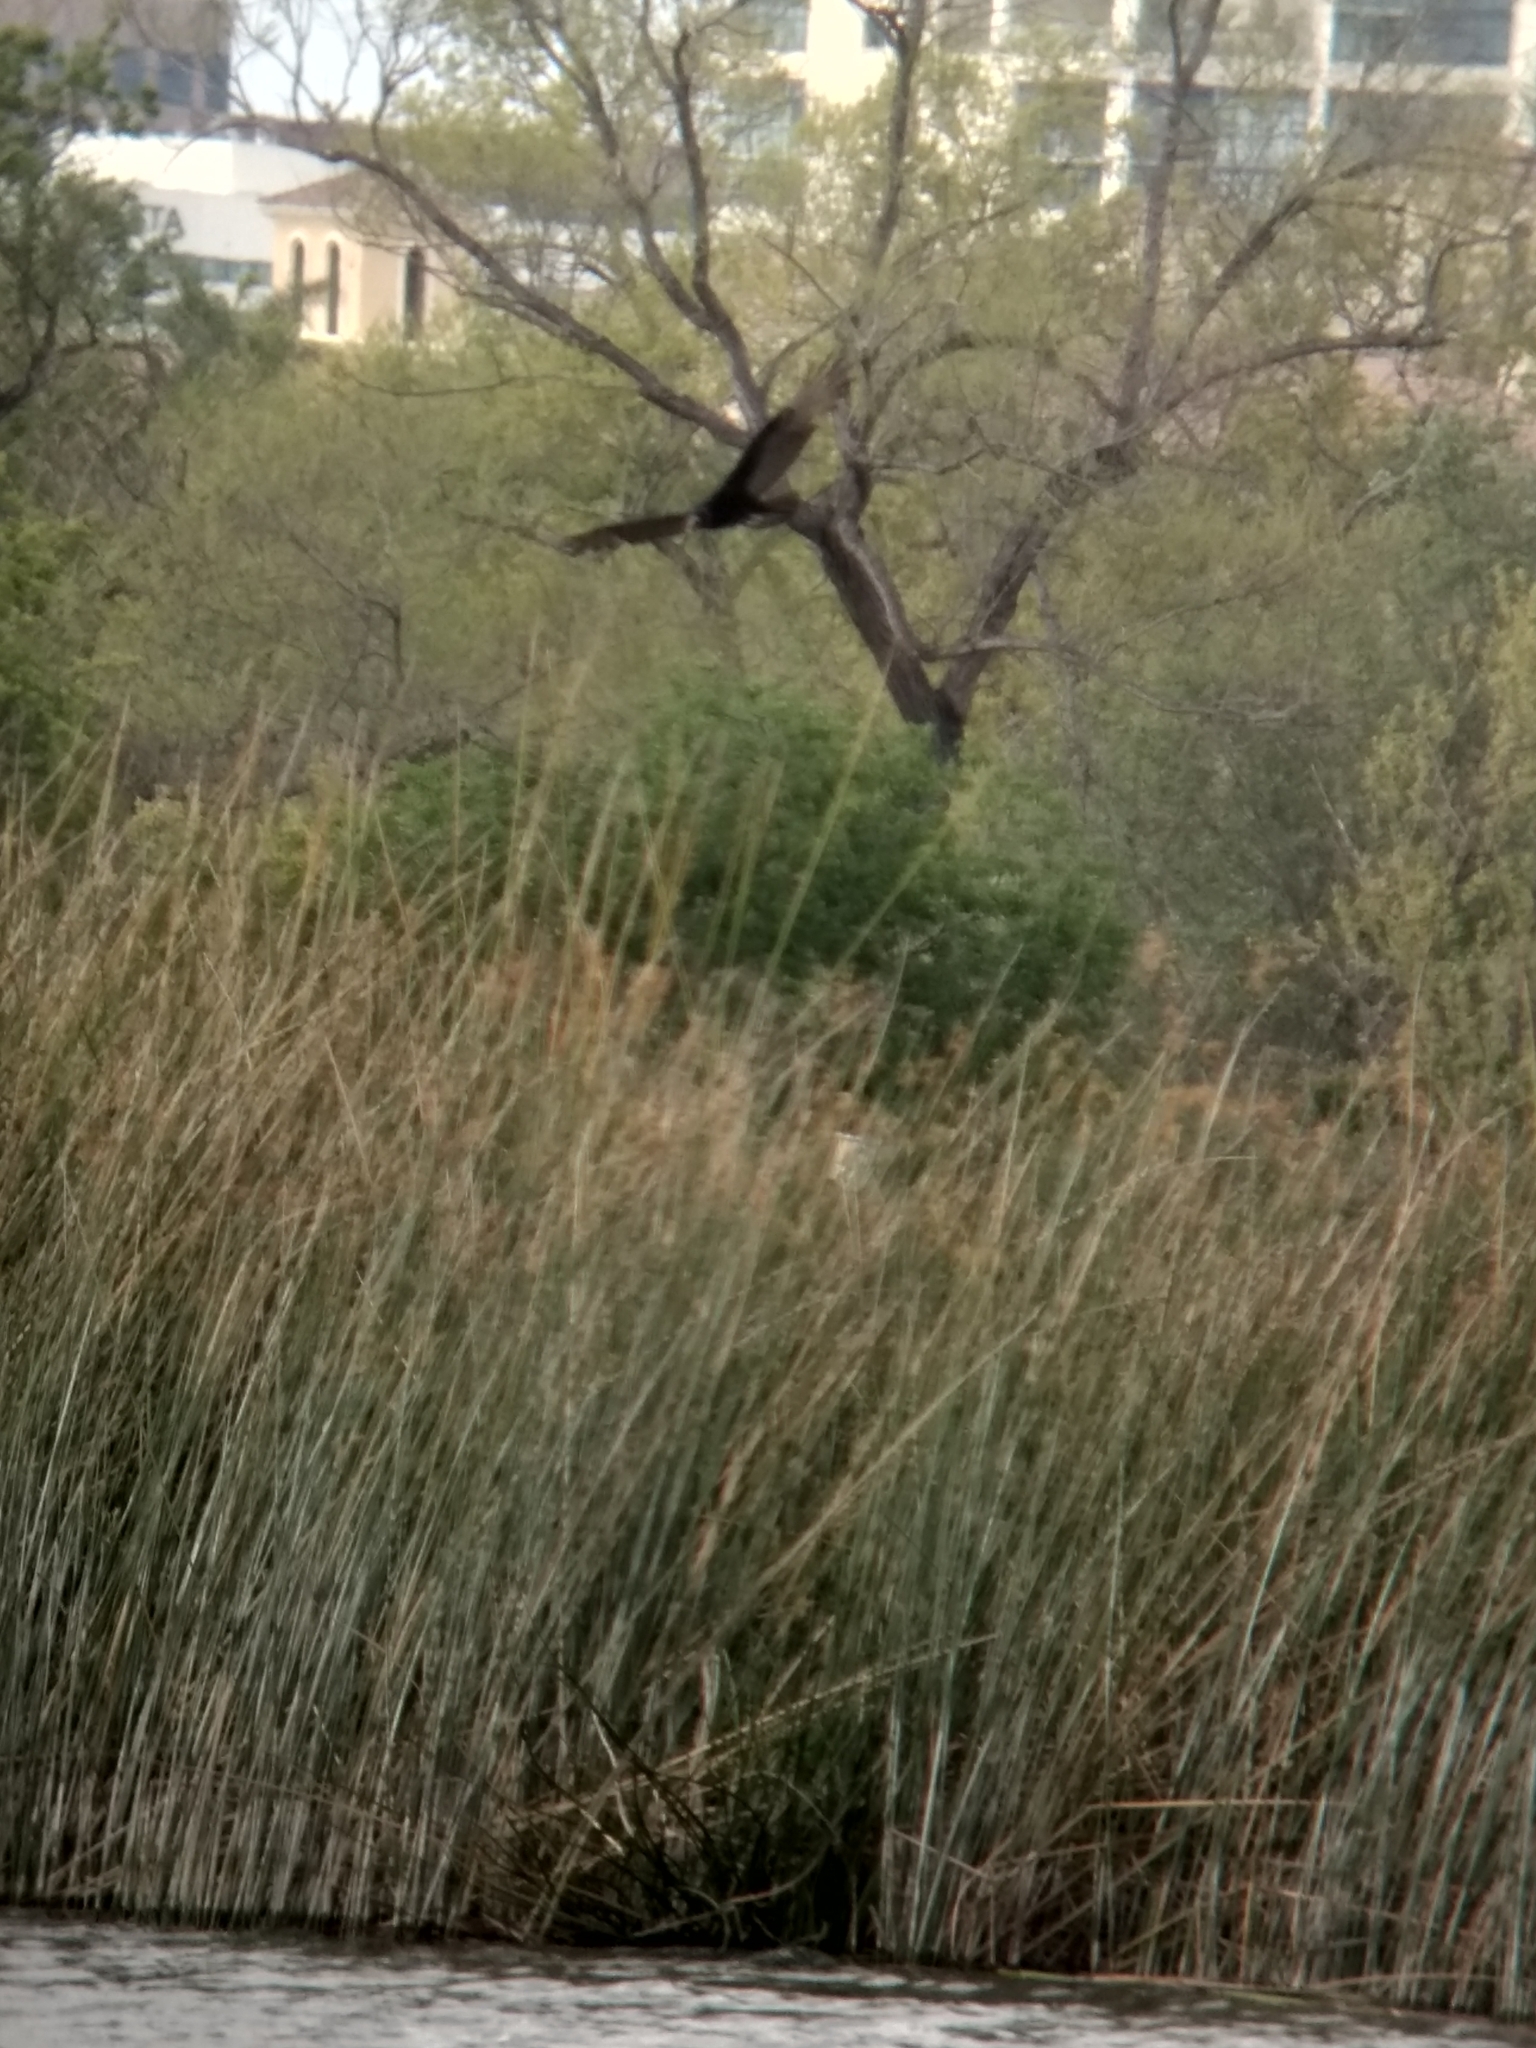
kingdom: Animalia
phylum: Chordata
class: Aves
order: Accipitriformes
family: Cathartidae
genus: Cathartes
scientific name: Cathartes aura
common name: Turkey vulture
